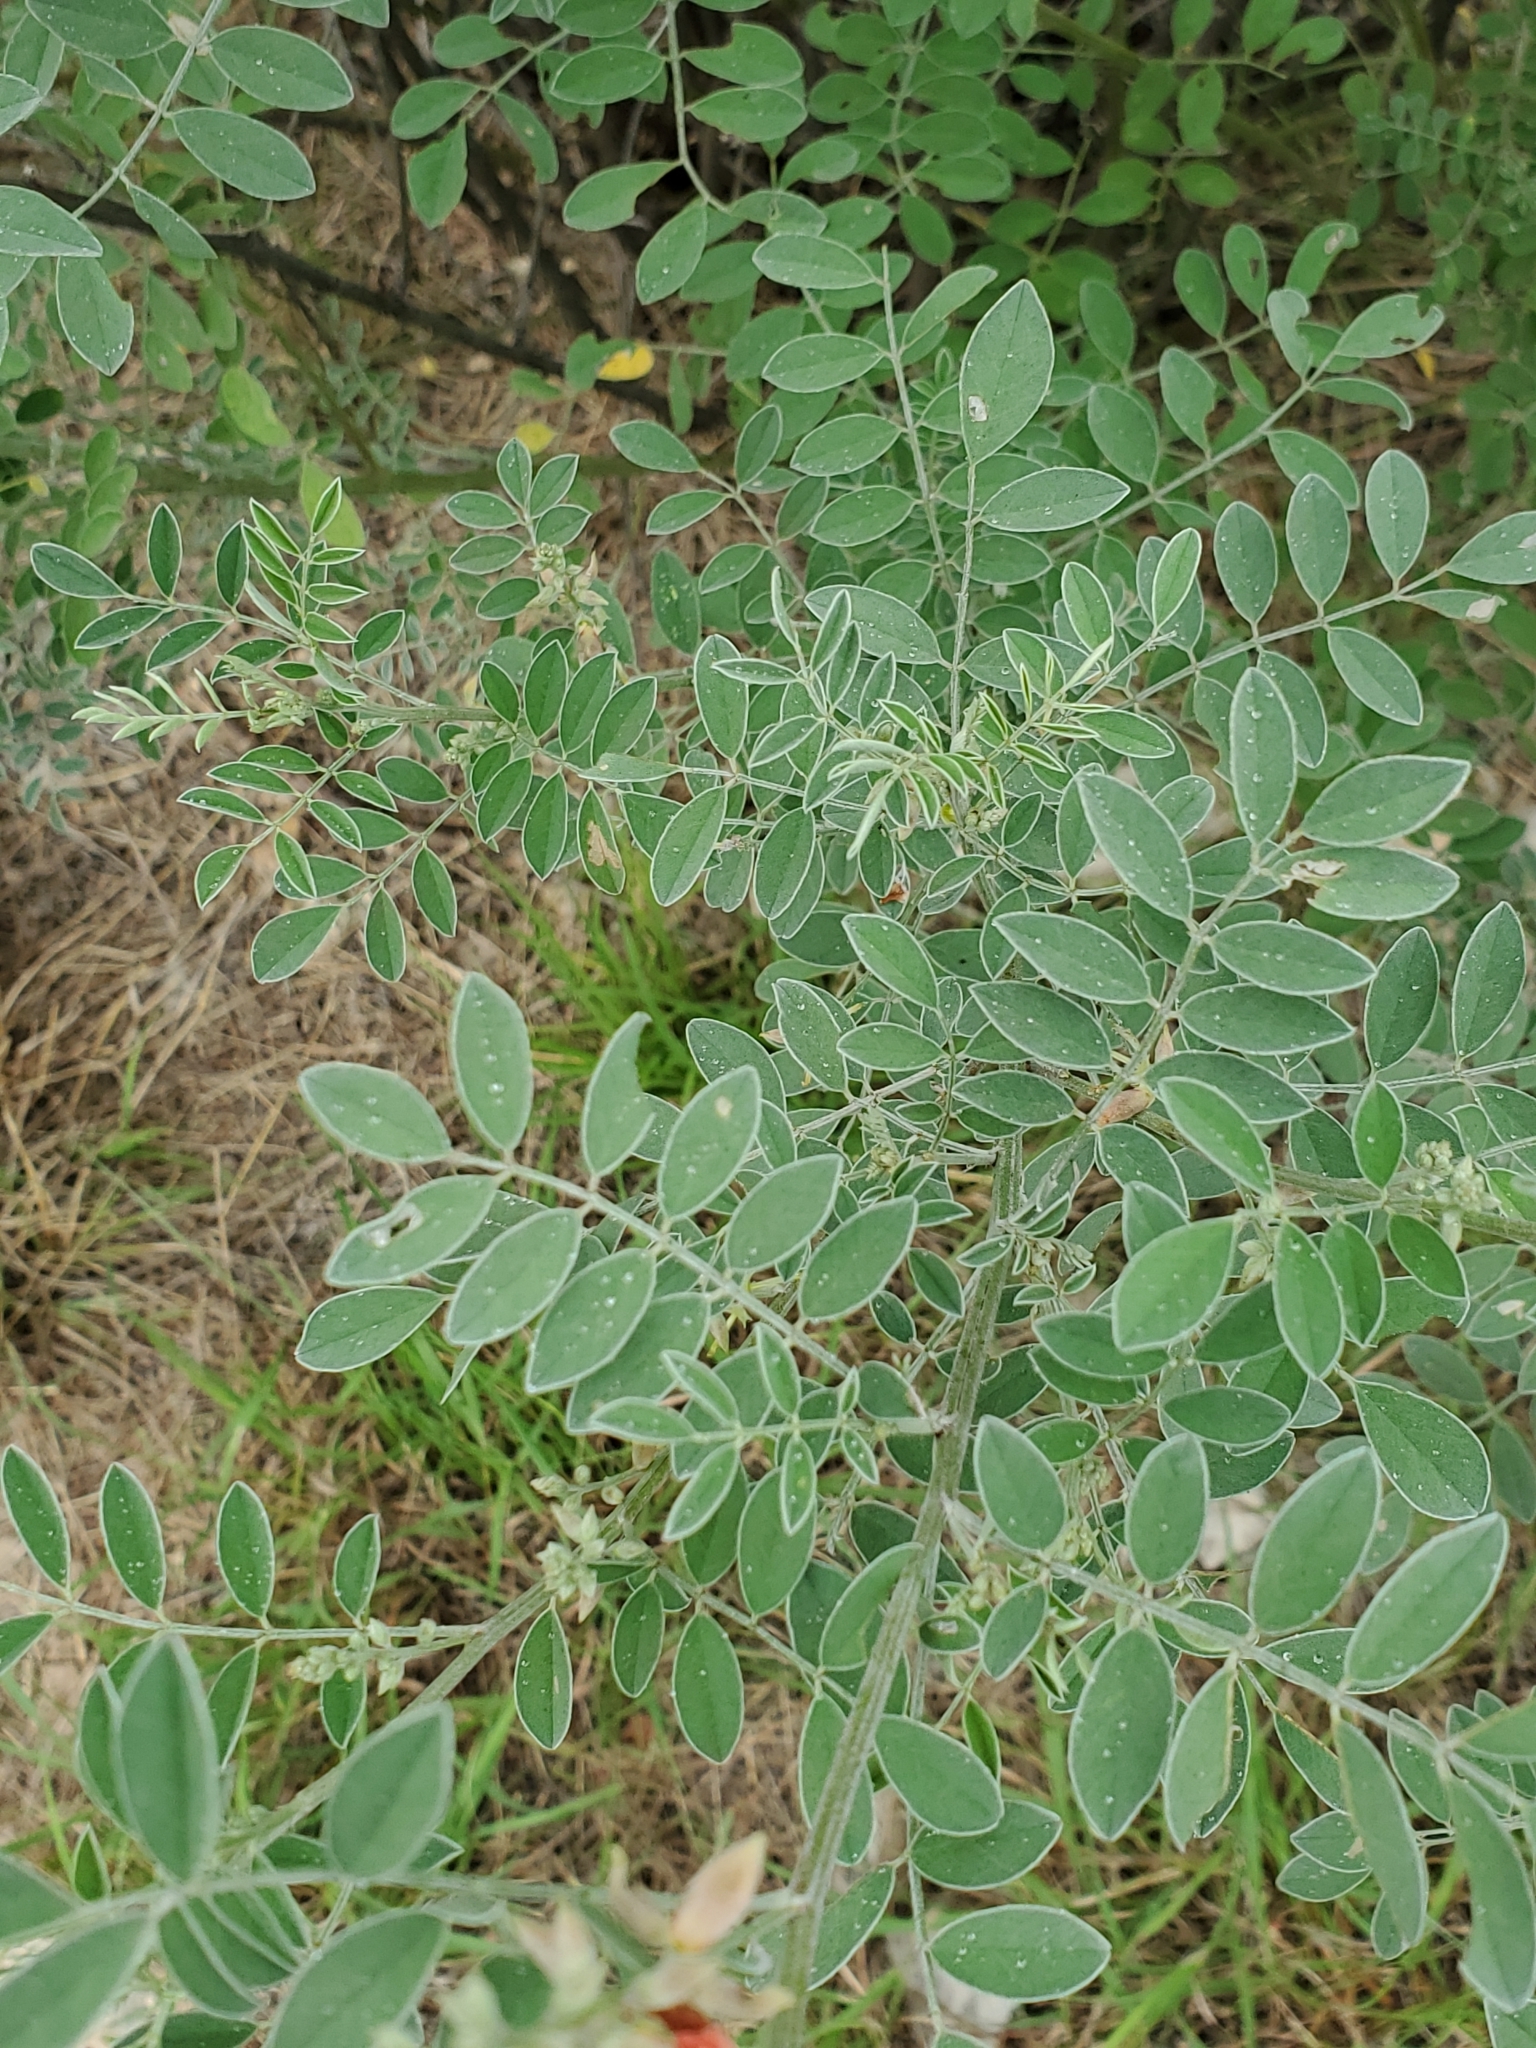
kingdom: Plantae
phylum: Tracheophyta
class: Magnoliopsida
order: Fabales
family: Fabaceae
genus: Indigofera
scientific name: Indigofera lindheimeriana
